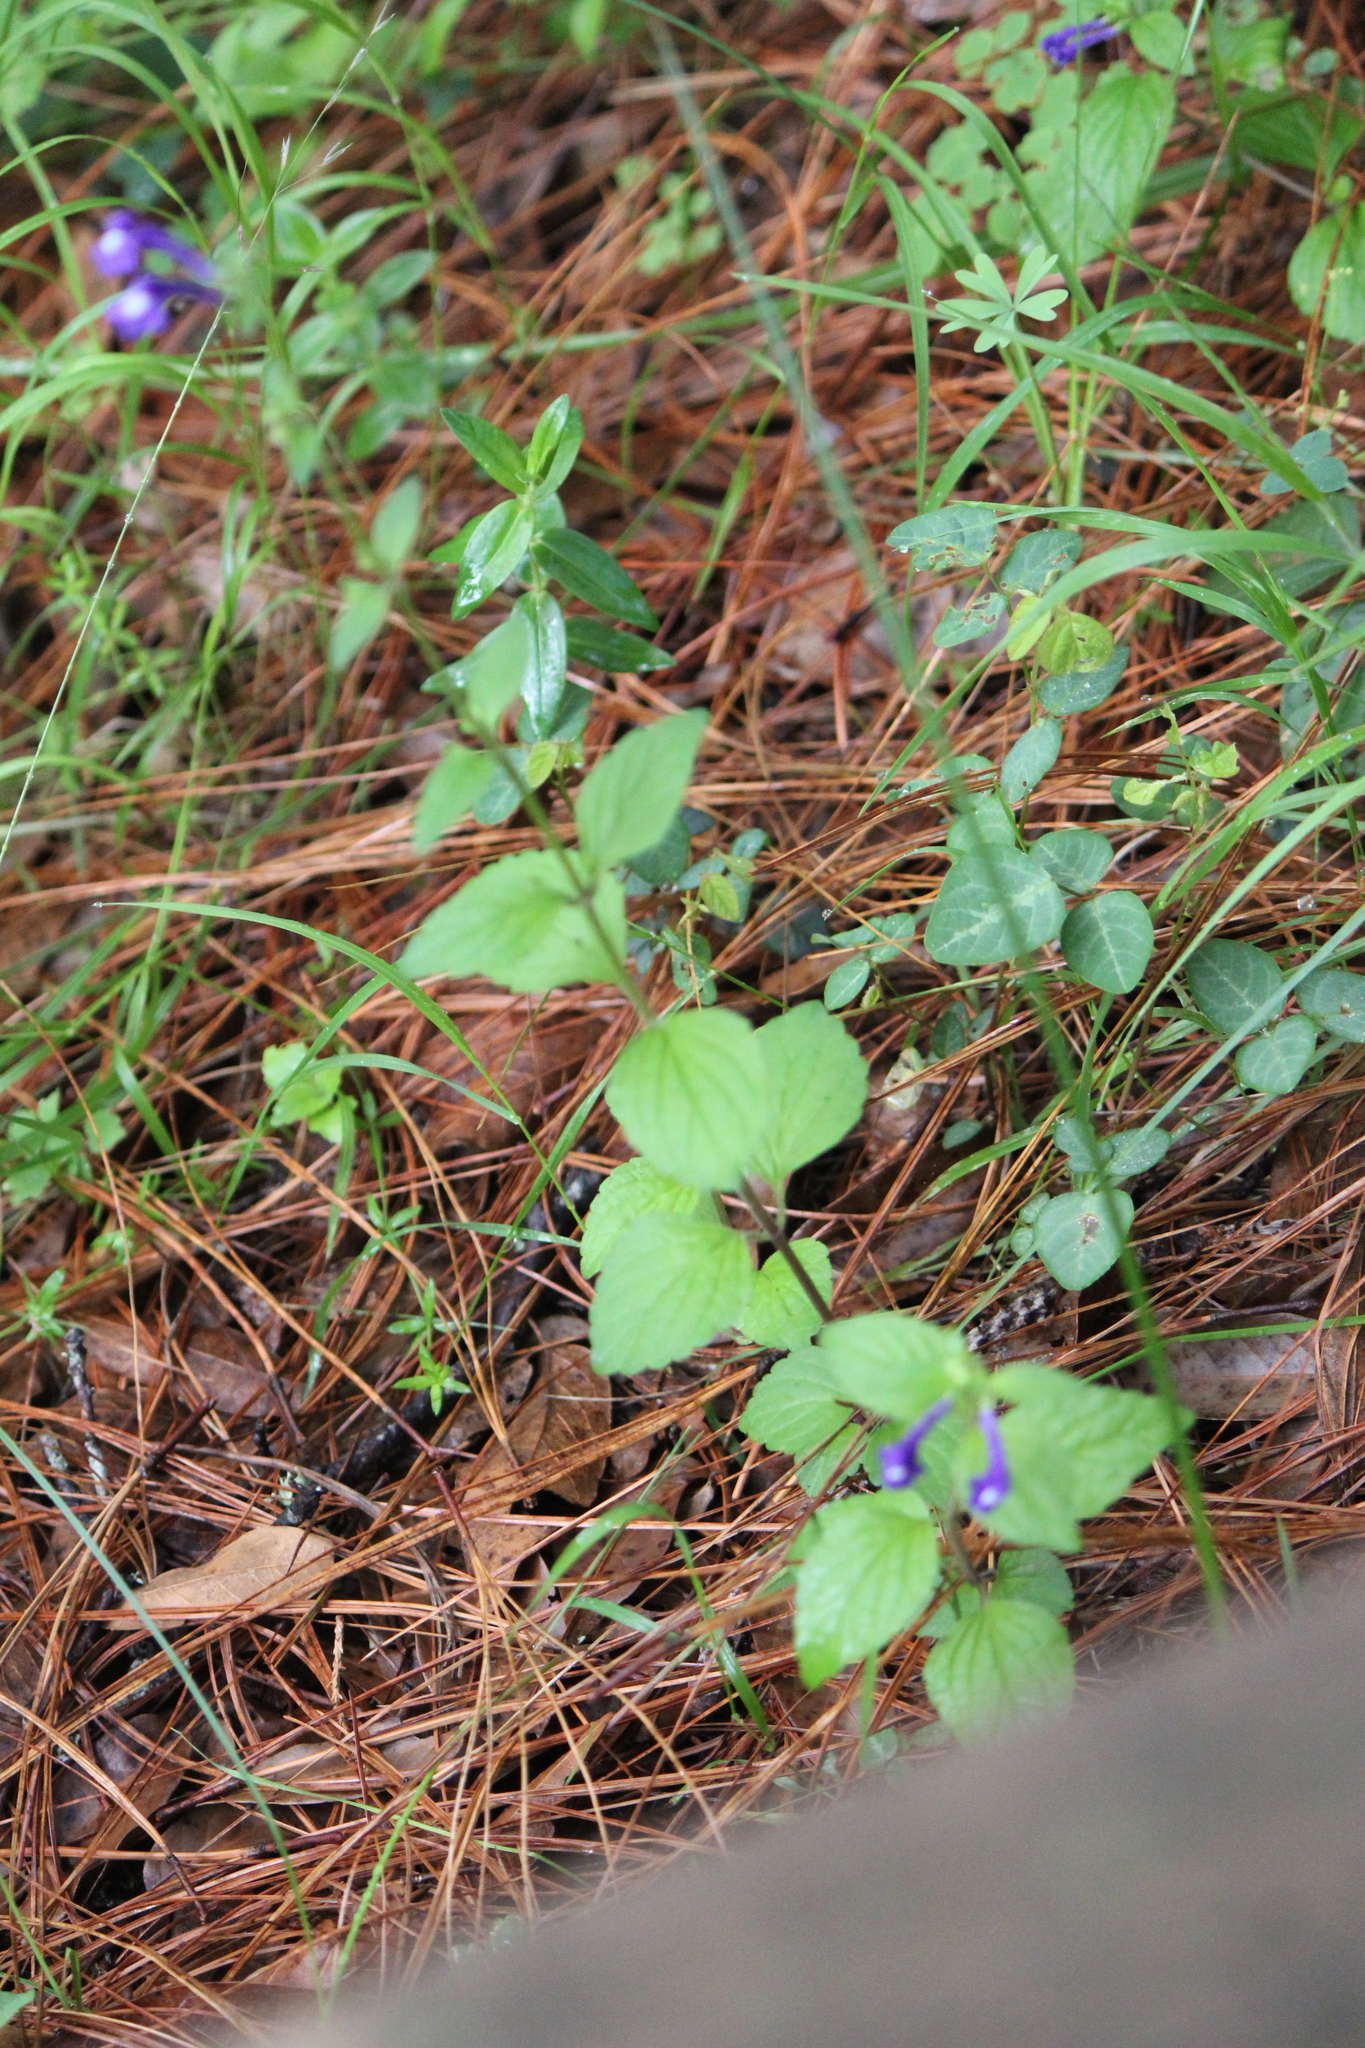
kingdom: Plantae
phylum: Tracheophyta
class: Magnoliopsida
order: Lamiales
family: Lamiaceae
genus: Scutellaria
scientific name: Scutellaria dumetorum
